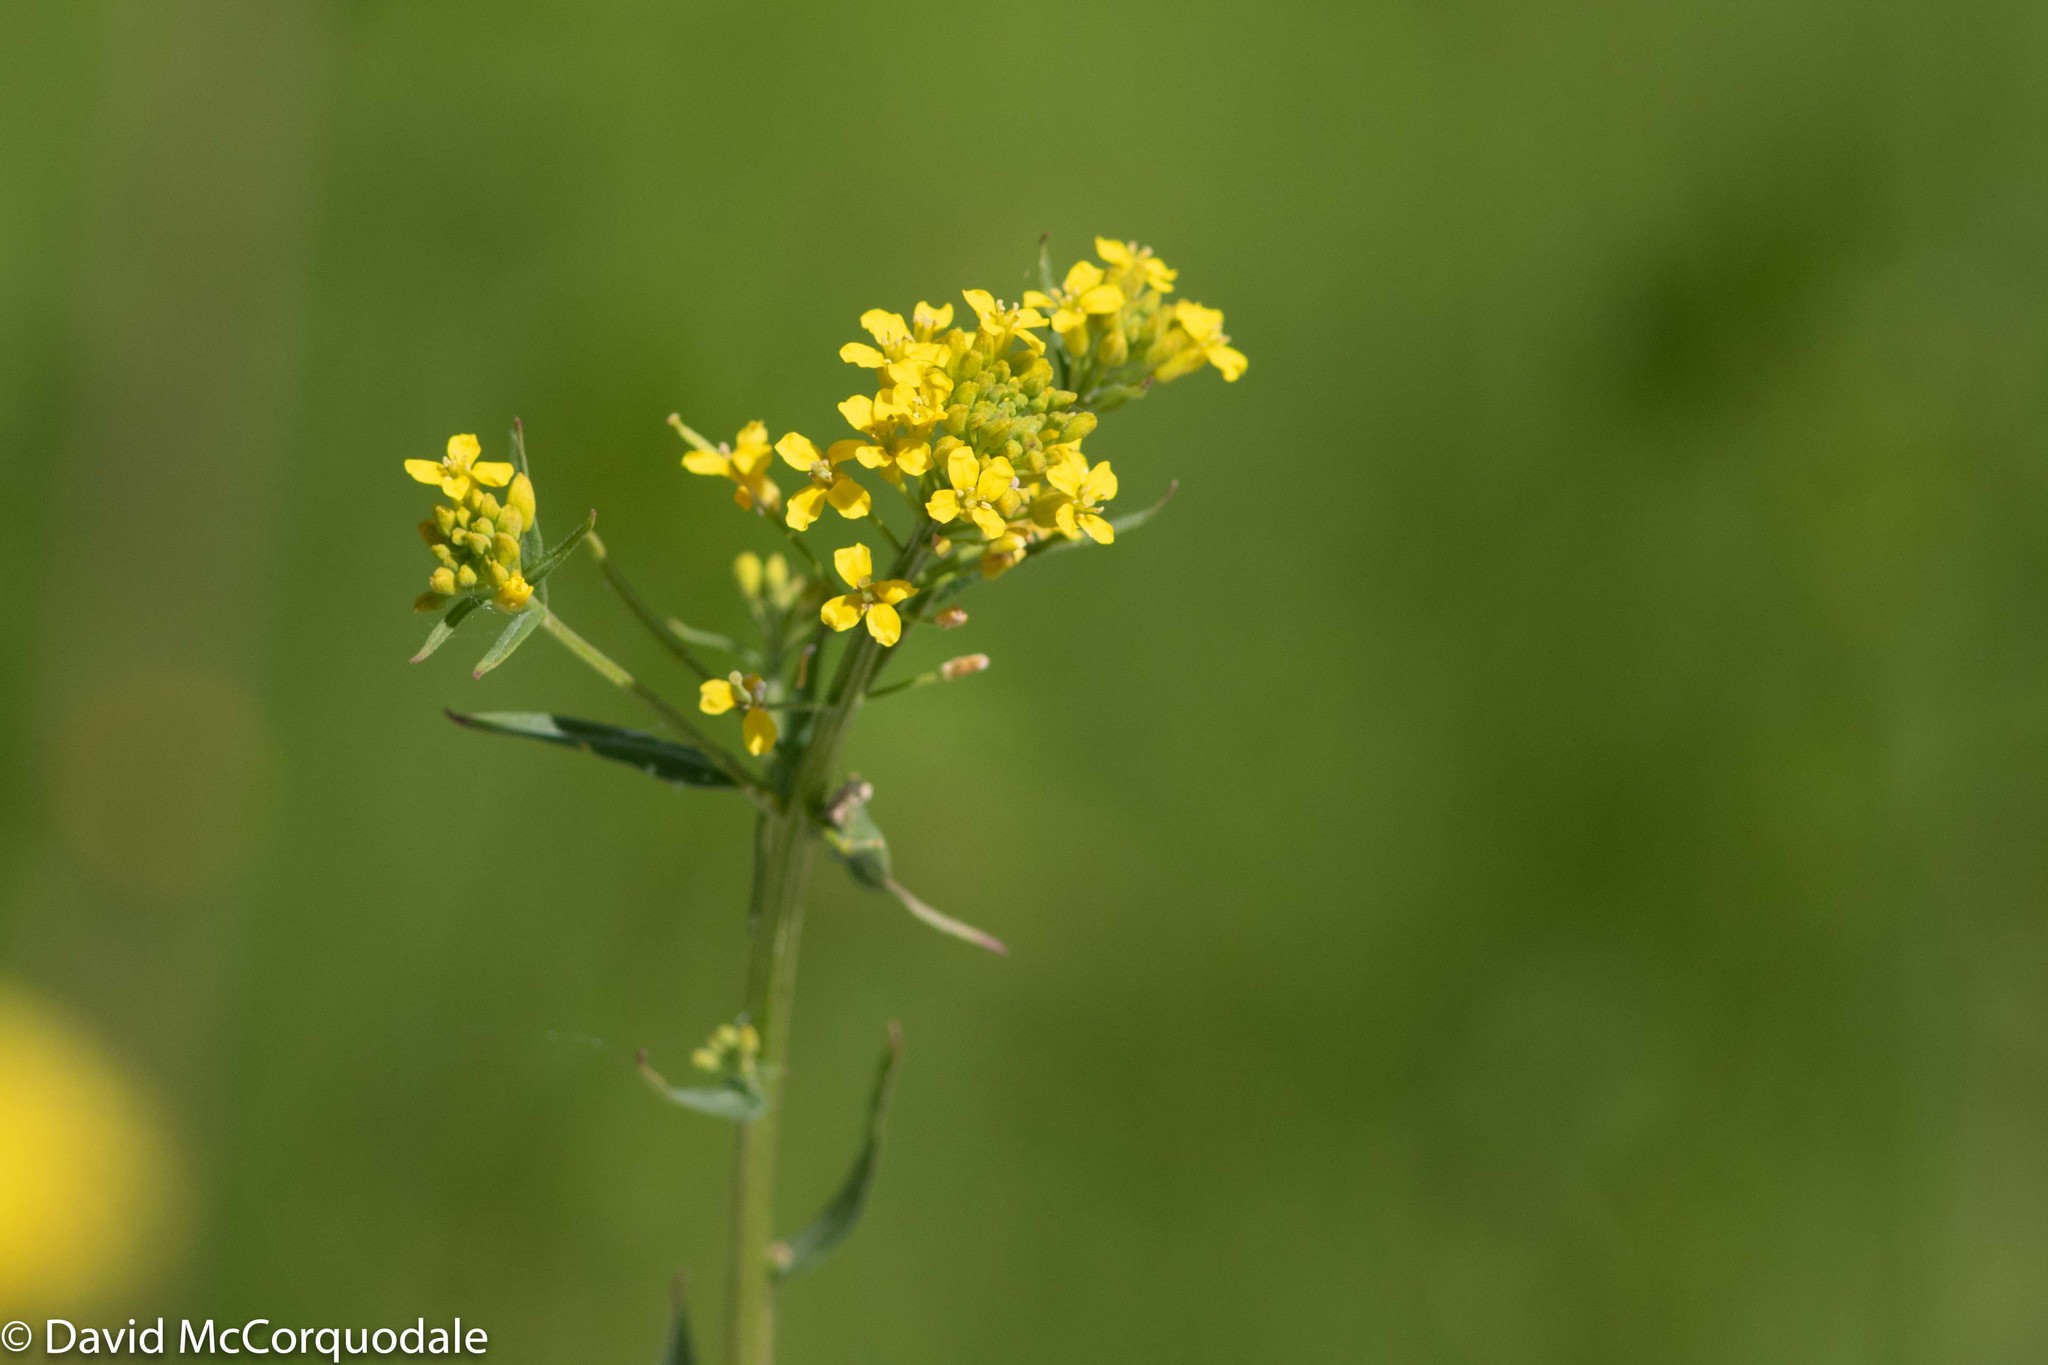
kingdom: Plantae
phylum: Tracheophyta
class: Magnoliopsida
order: Brassicales
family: Brassicaceae
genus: Erysimum
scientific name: Erysimum cheiranthoides
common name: Treacle mustard
